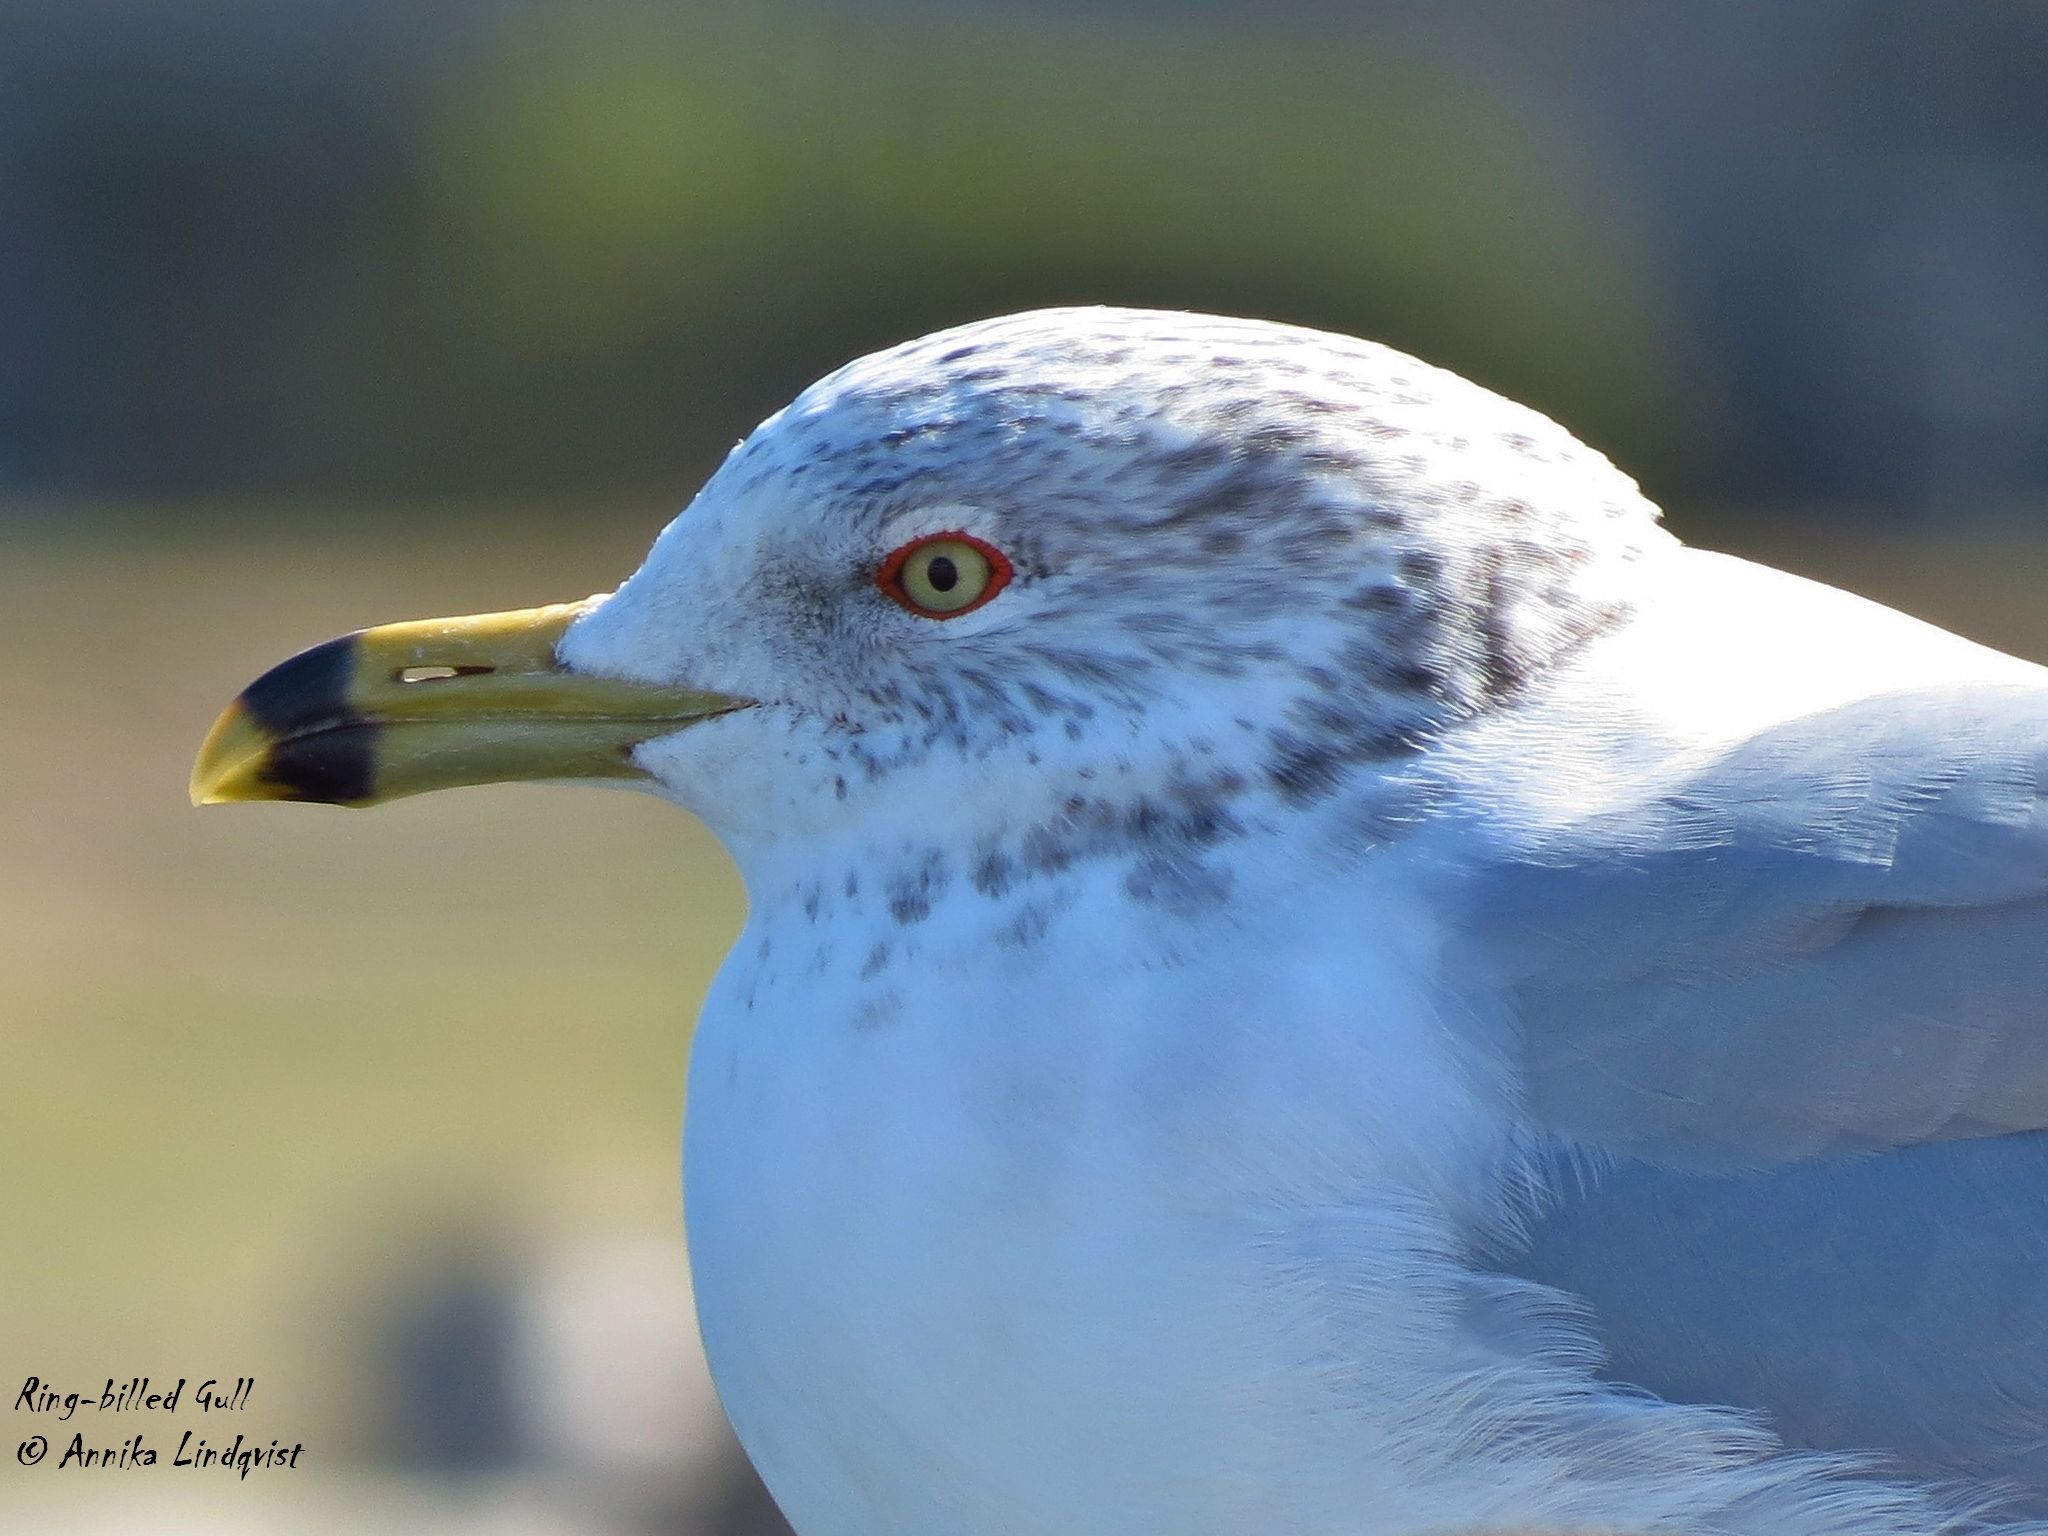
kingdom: Animalia
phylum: Chordata
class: Aves
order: Charadriiformes
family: Laridae
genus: Larus
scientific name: Larus delawarensis
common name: Ring-billed gull
